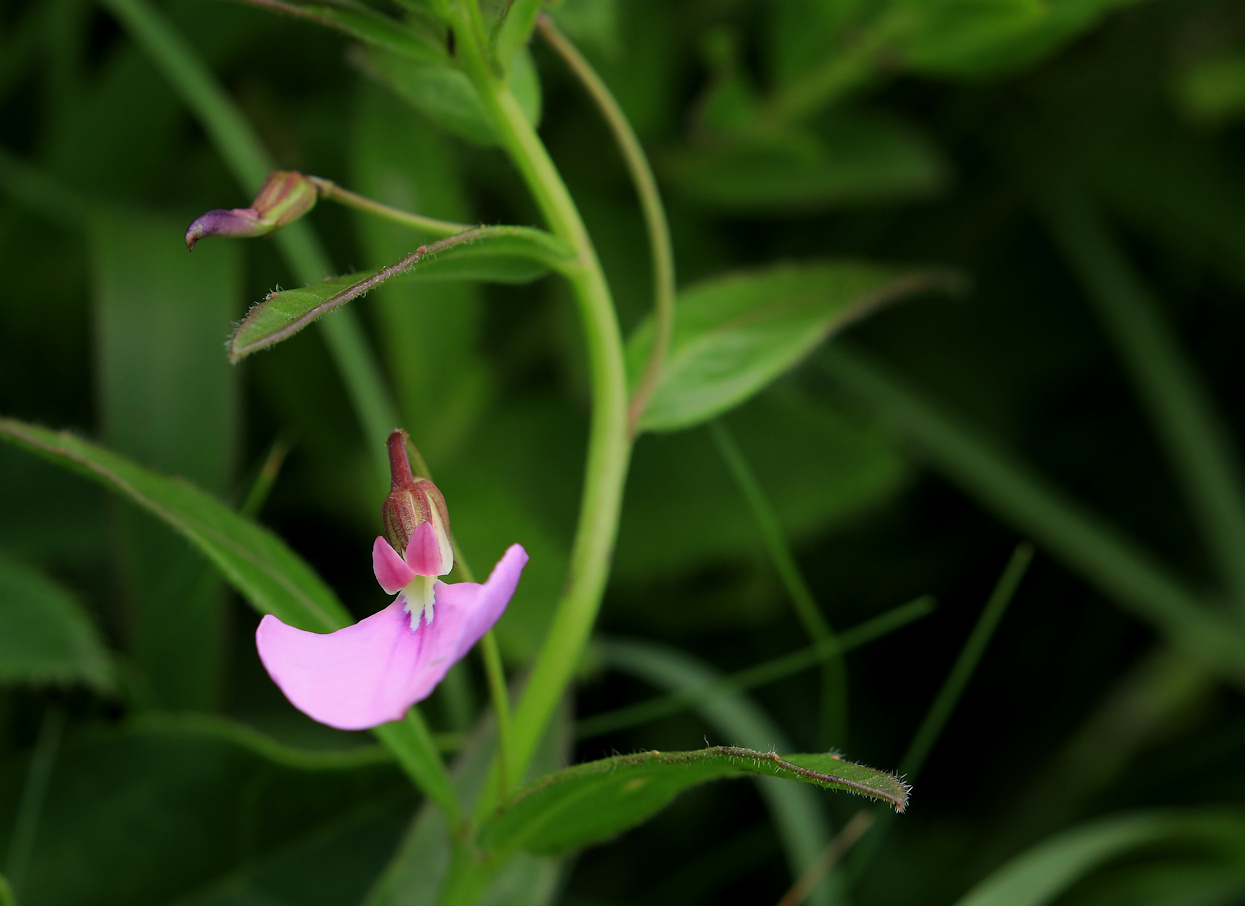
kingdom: Plantae
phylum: Tracheophyta
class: Magnoliopsida
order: Malpighiales
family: Violaceae
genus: Pigea
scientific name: Pigea enneasperma
